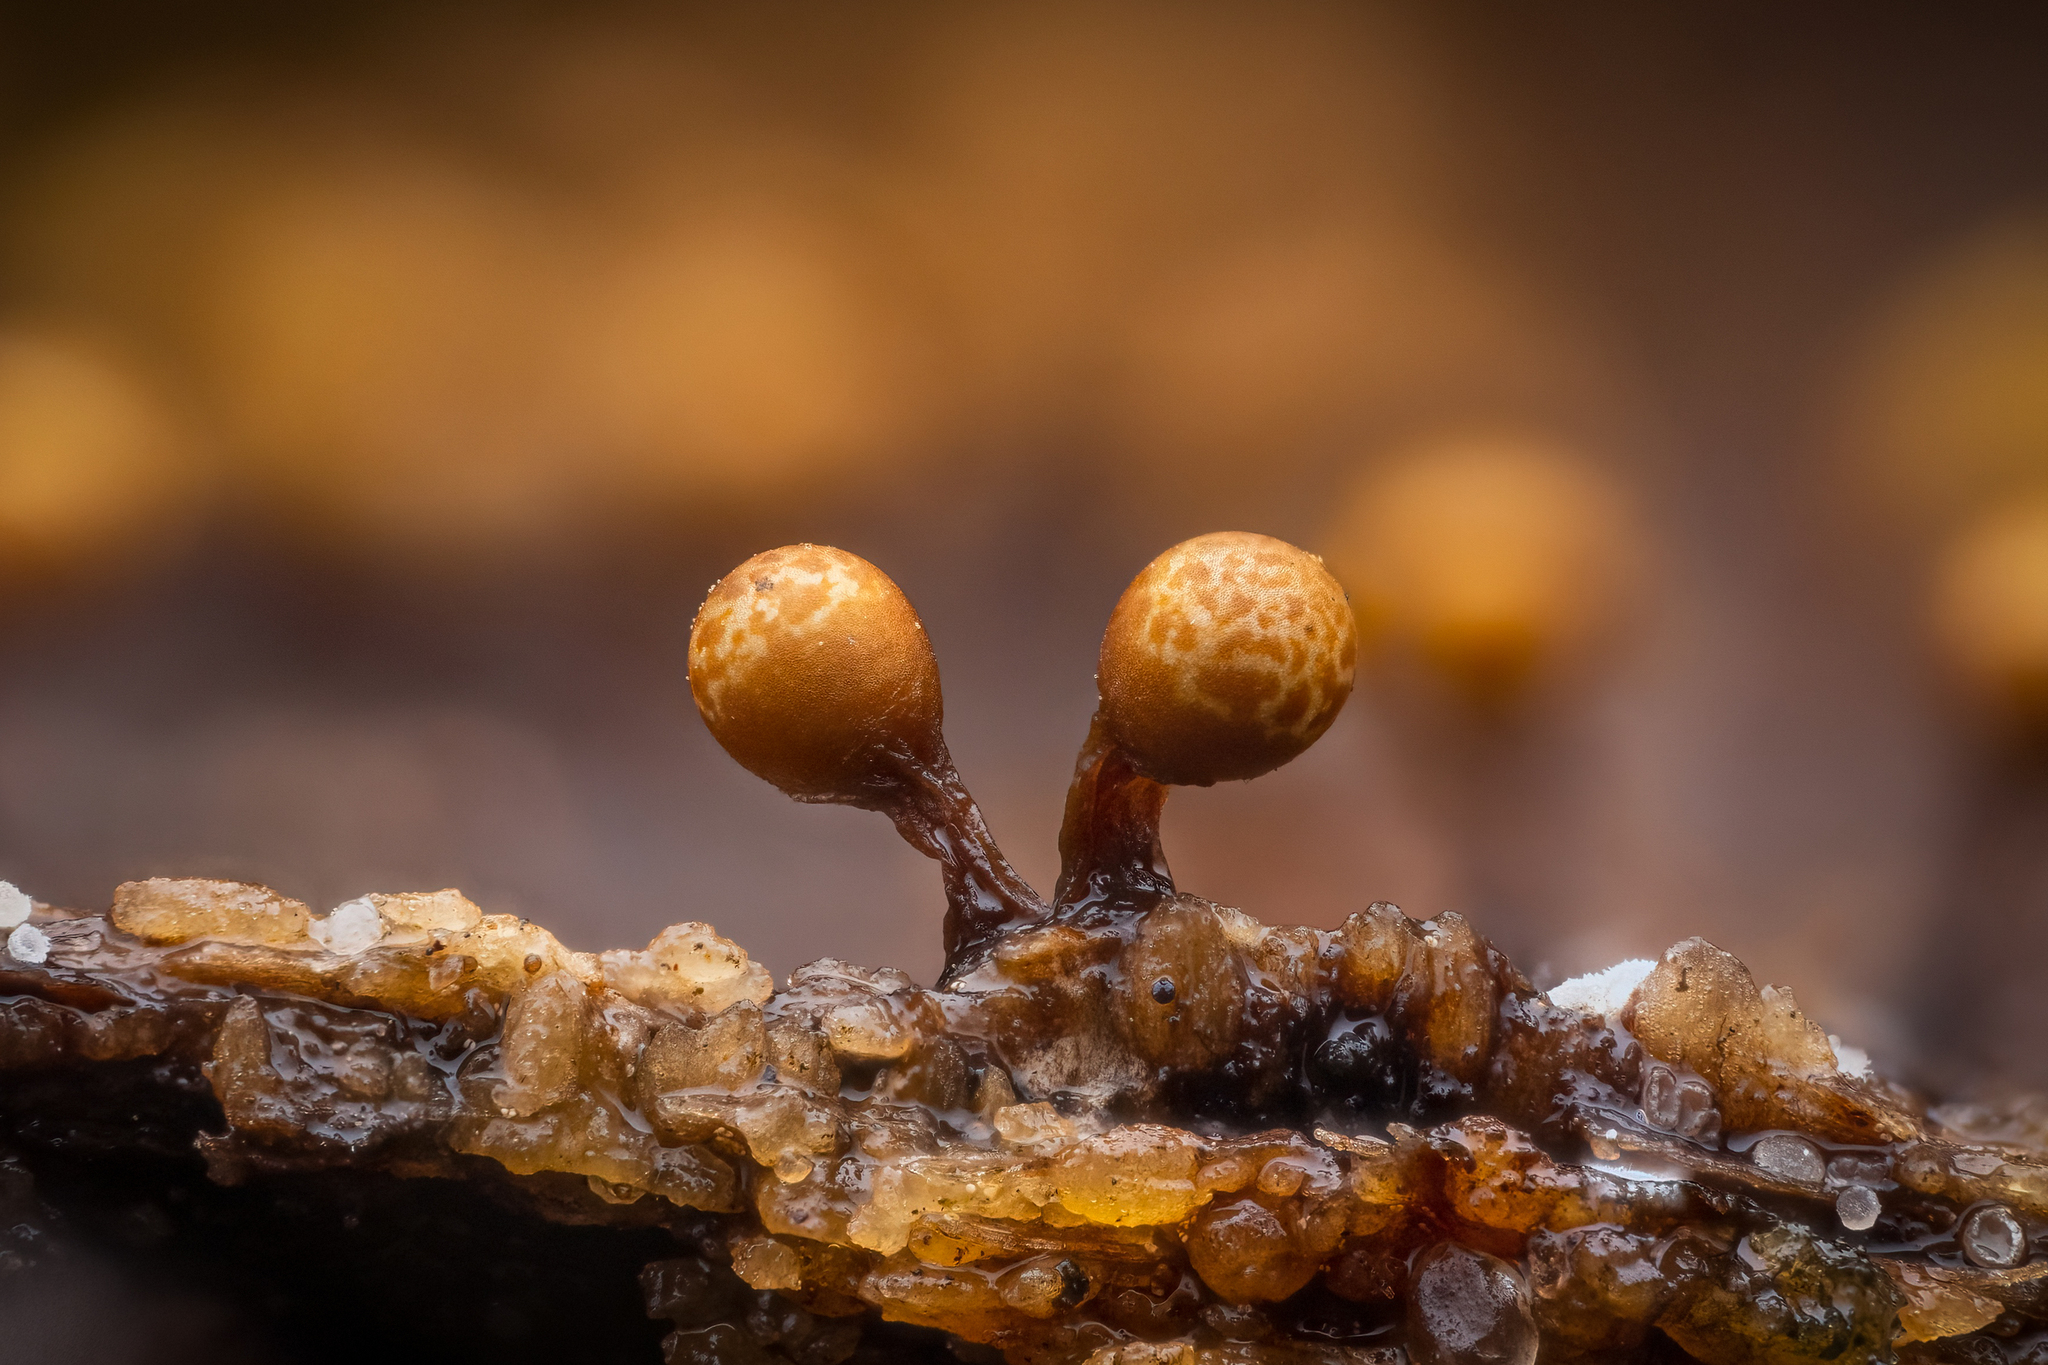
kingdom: Protozoa
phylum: Mycetozoa
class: Myxomycetes
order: Trichiales
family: Trichiaceae
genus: Trichia
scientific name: Trichia ambigua
